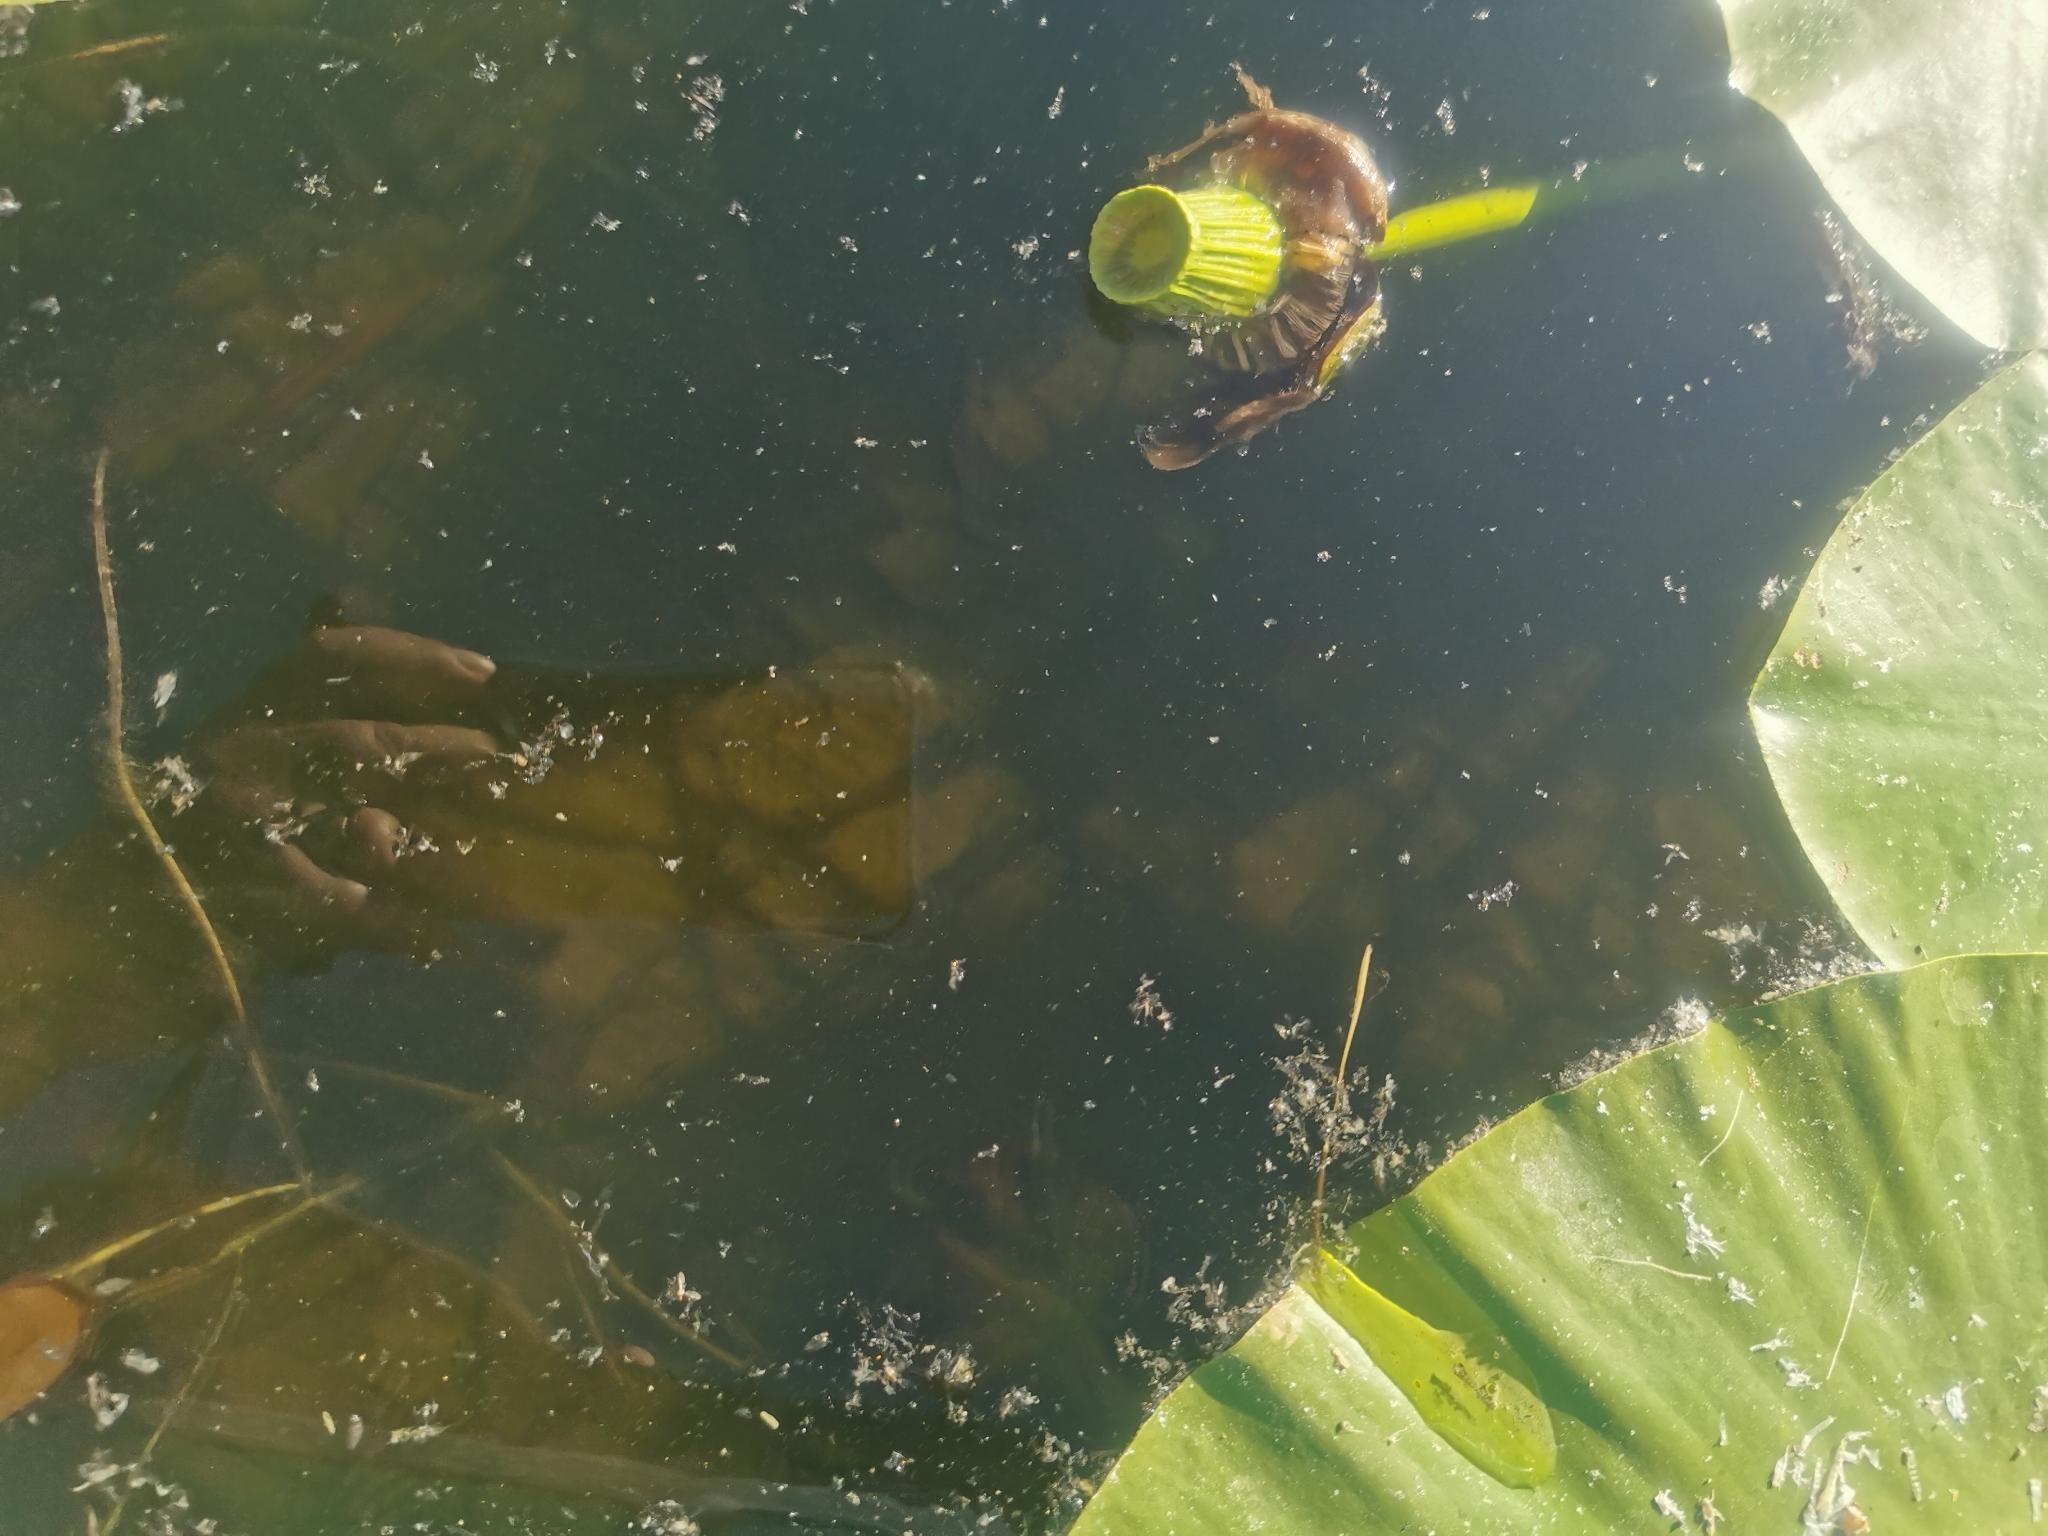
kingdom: Plantae
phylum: Tracheophyta
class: Magnoliopsida
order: Nymphaeales
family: Nymphaeaceae
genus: Nuphar
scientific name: Nuphar polysepala
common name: Rocky mountain cow-lily
